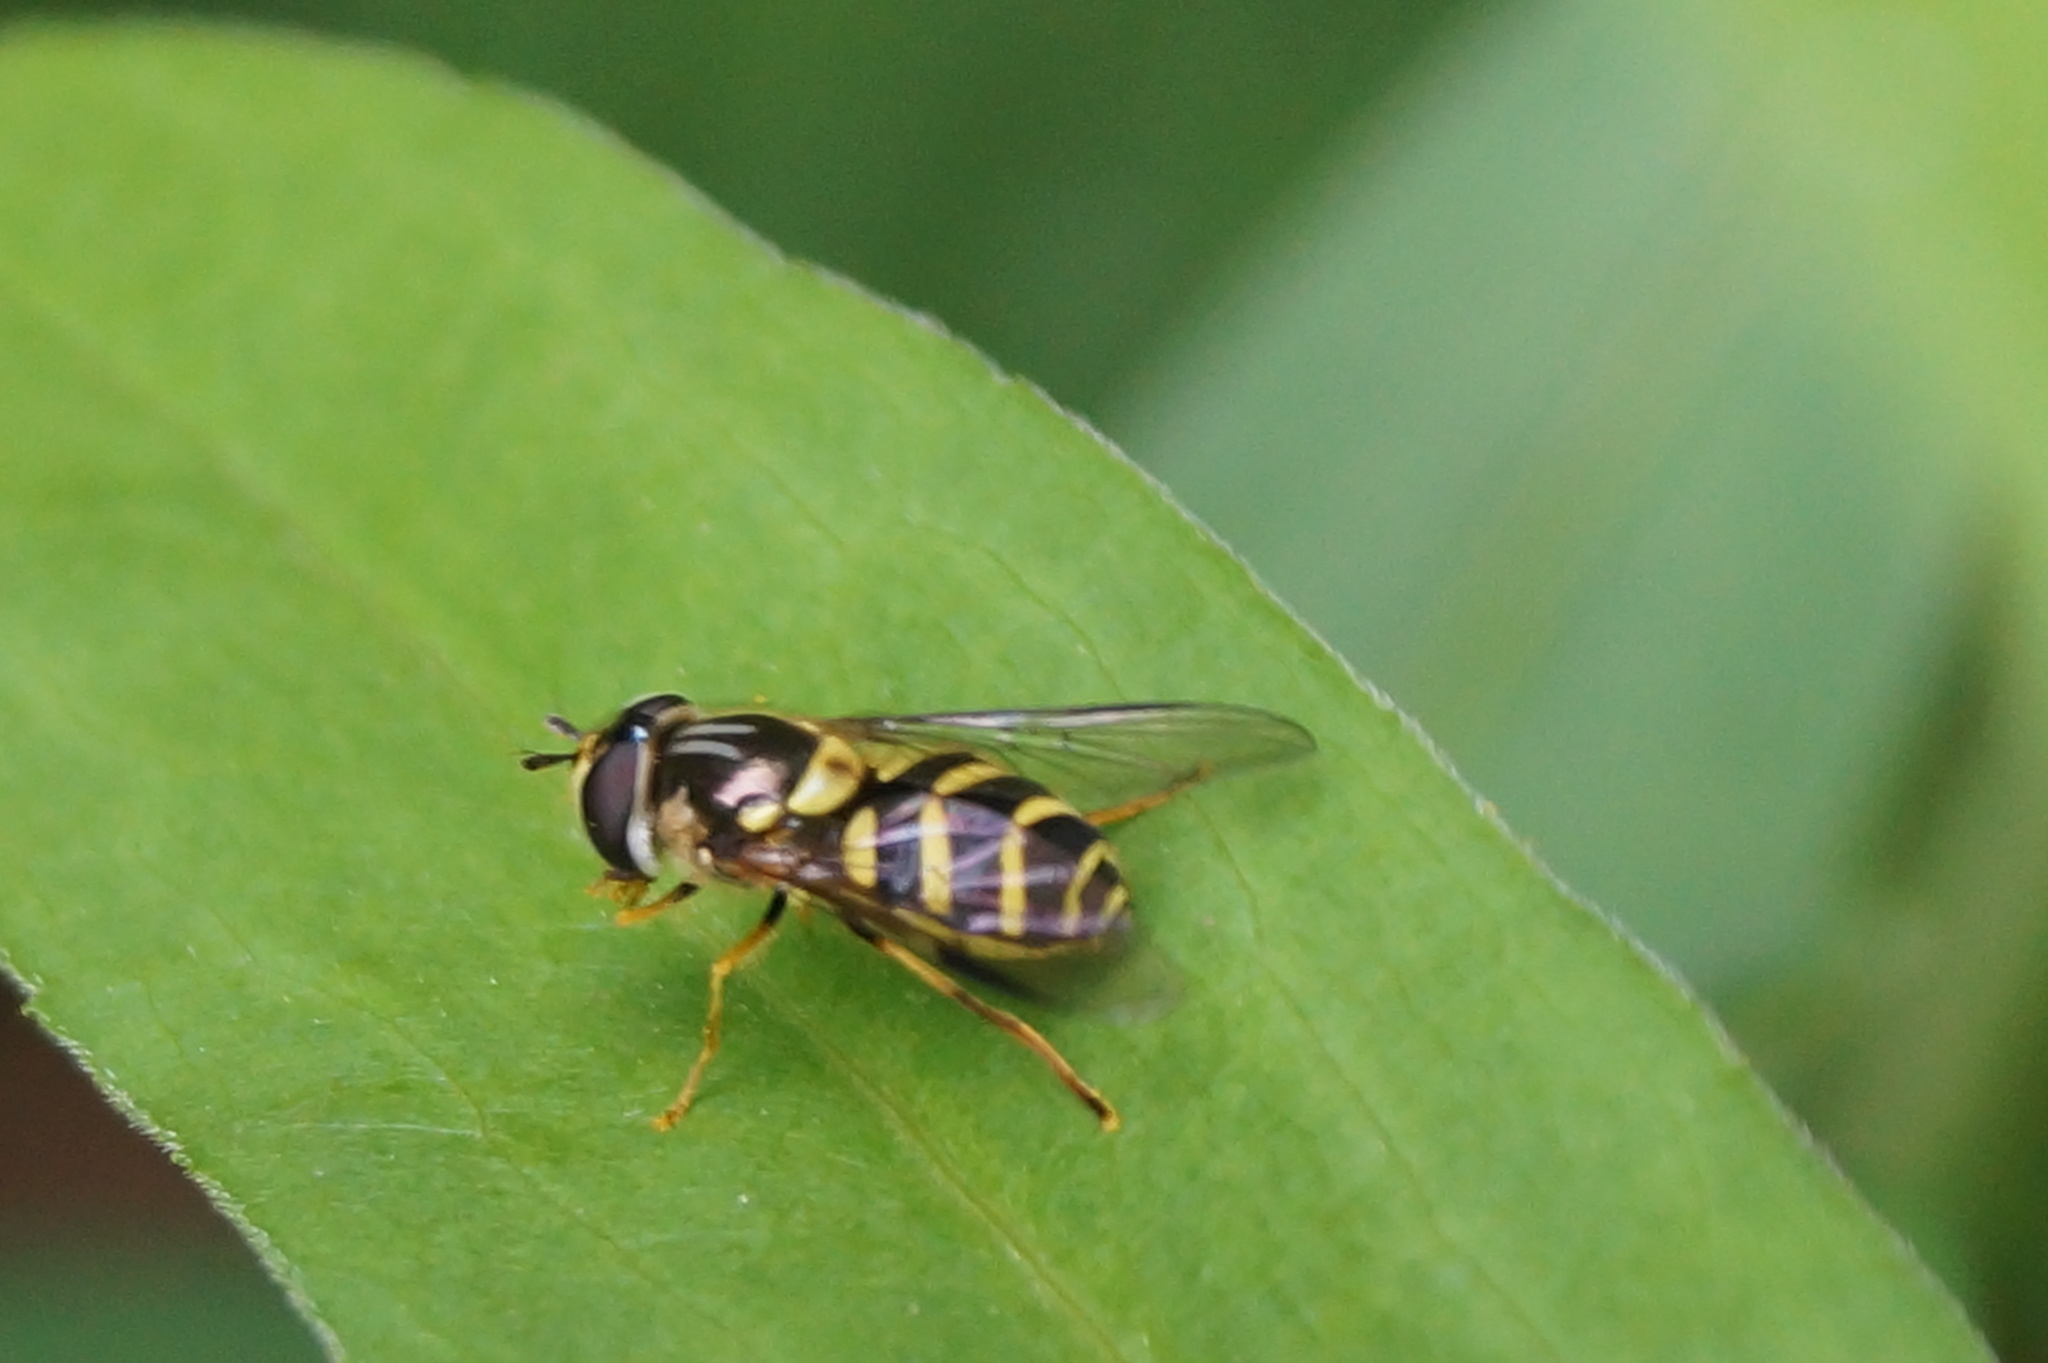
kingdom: Animalia
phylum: Arthropoda
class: Insecta
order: Diptera
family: Syrphidae
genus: Dasysyrphus
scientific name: Dasysyrphus albostriatus
